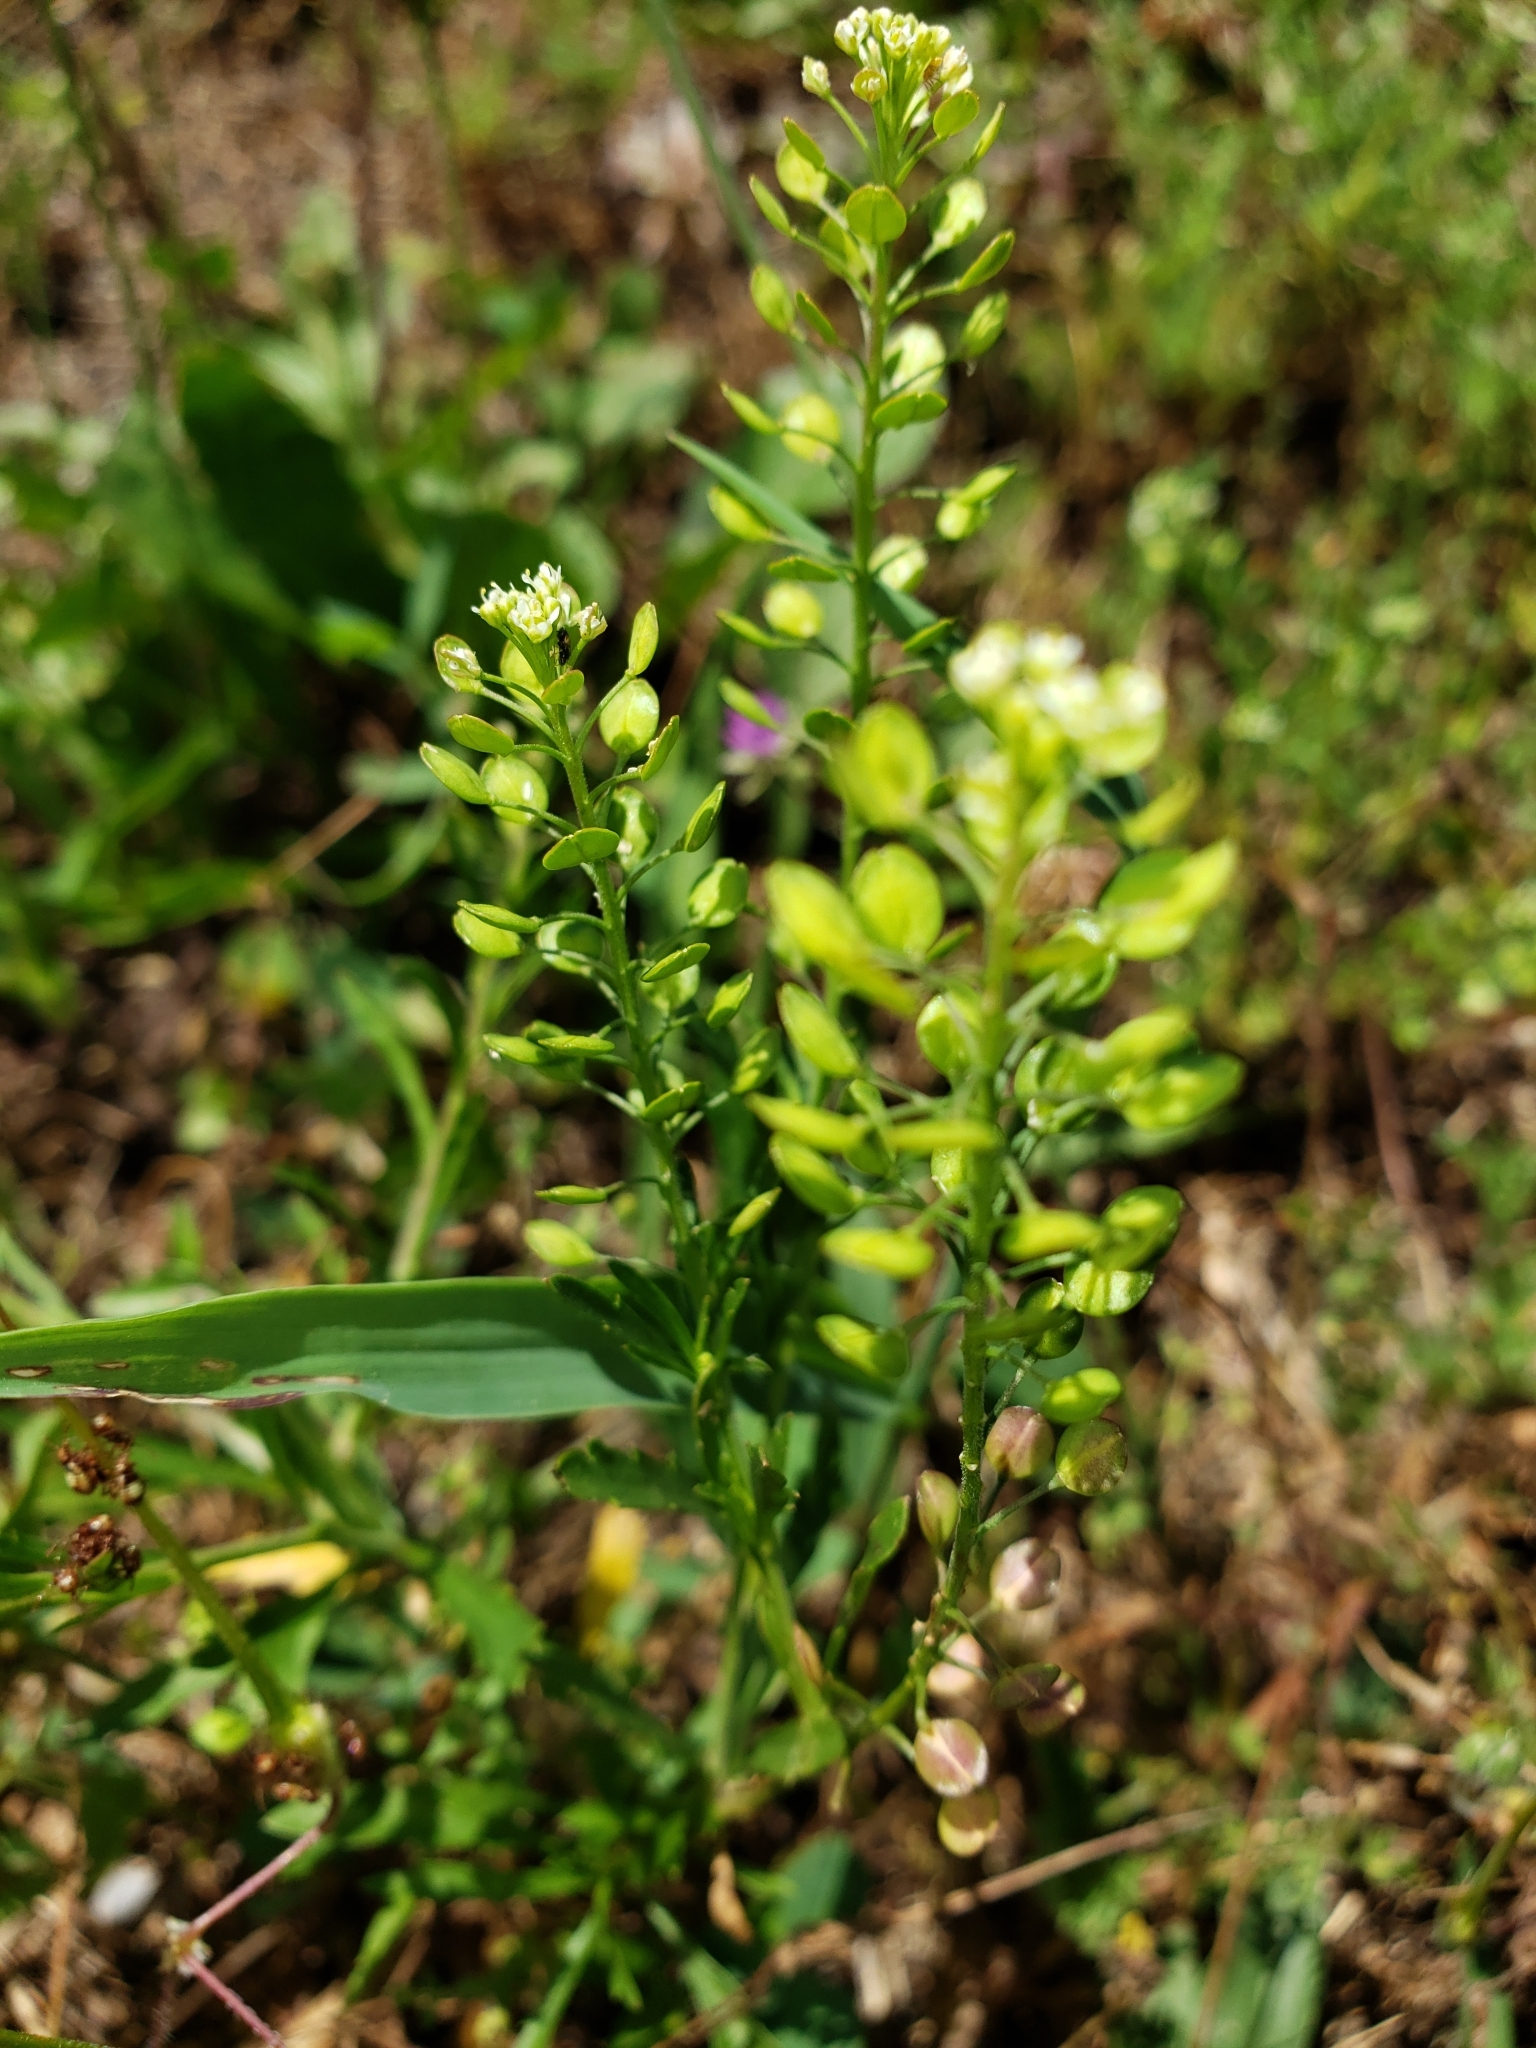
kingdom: Plantae
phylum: Tracheophyta
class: Magnoliopsida
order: Brassicales
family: Brassicaceae
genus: Lepidium
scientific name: Lepidium virginicum
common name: Least pepperwort
